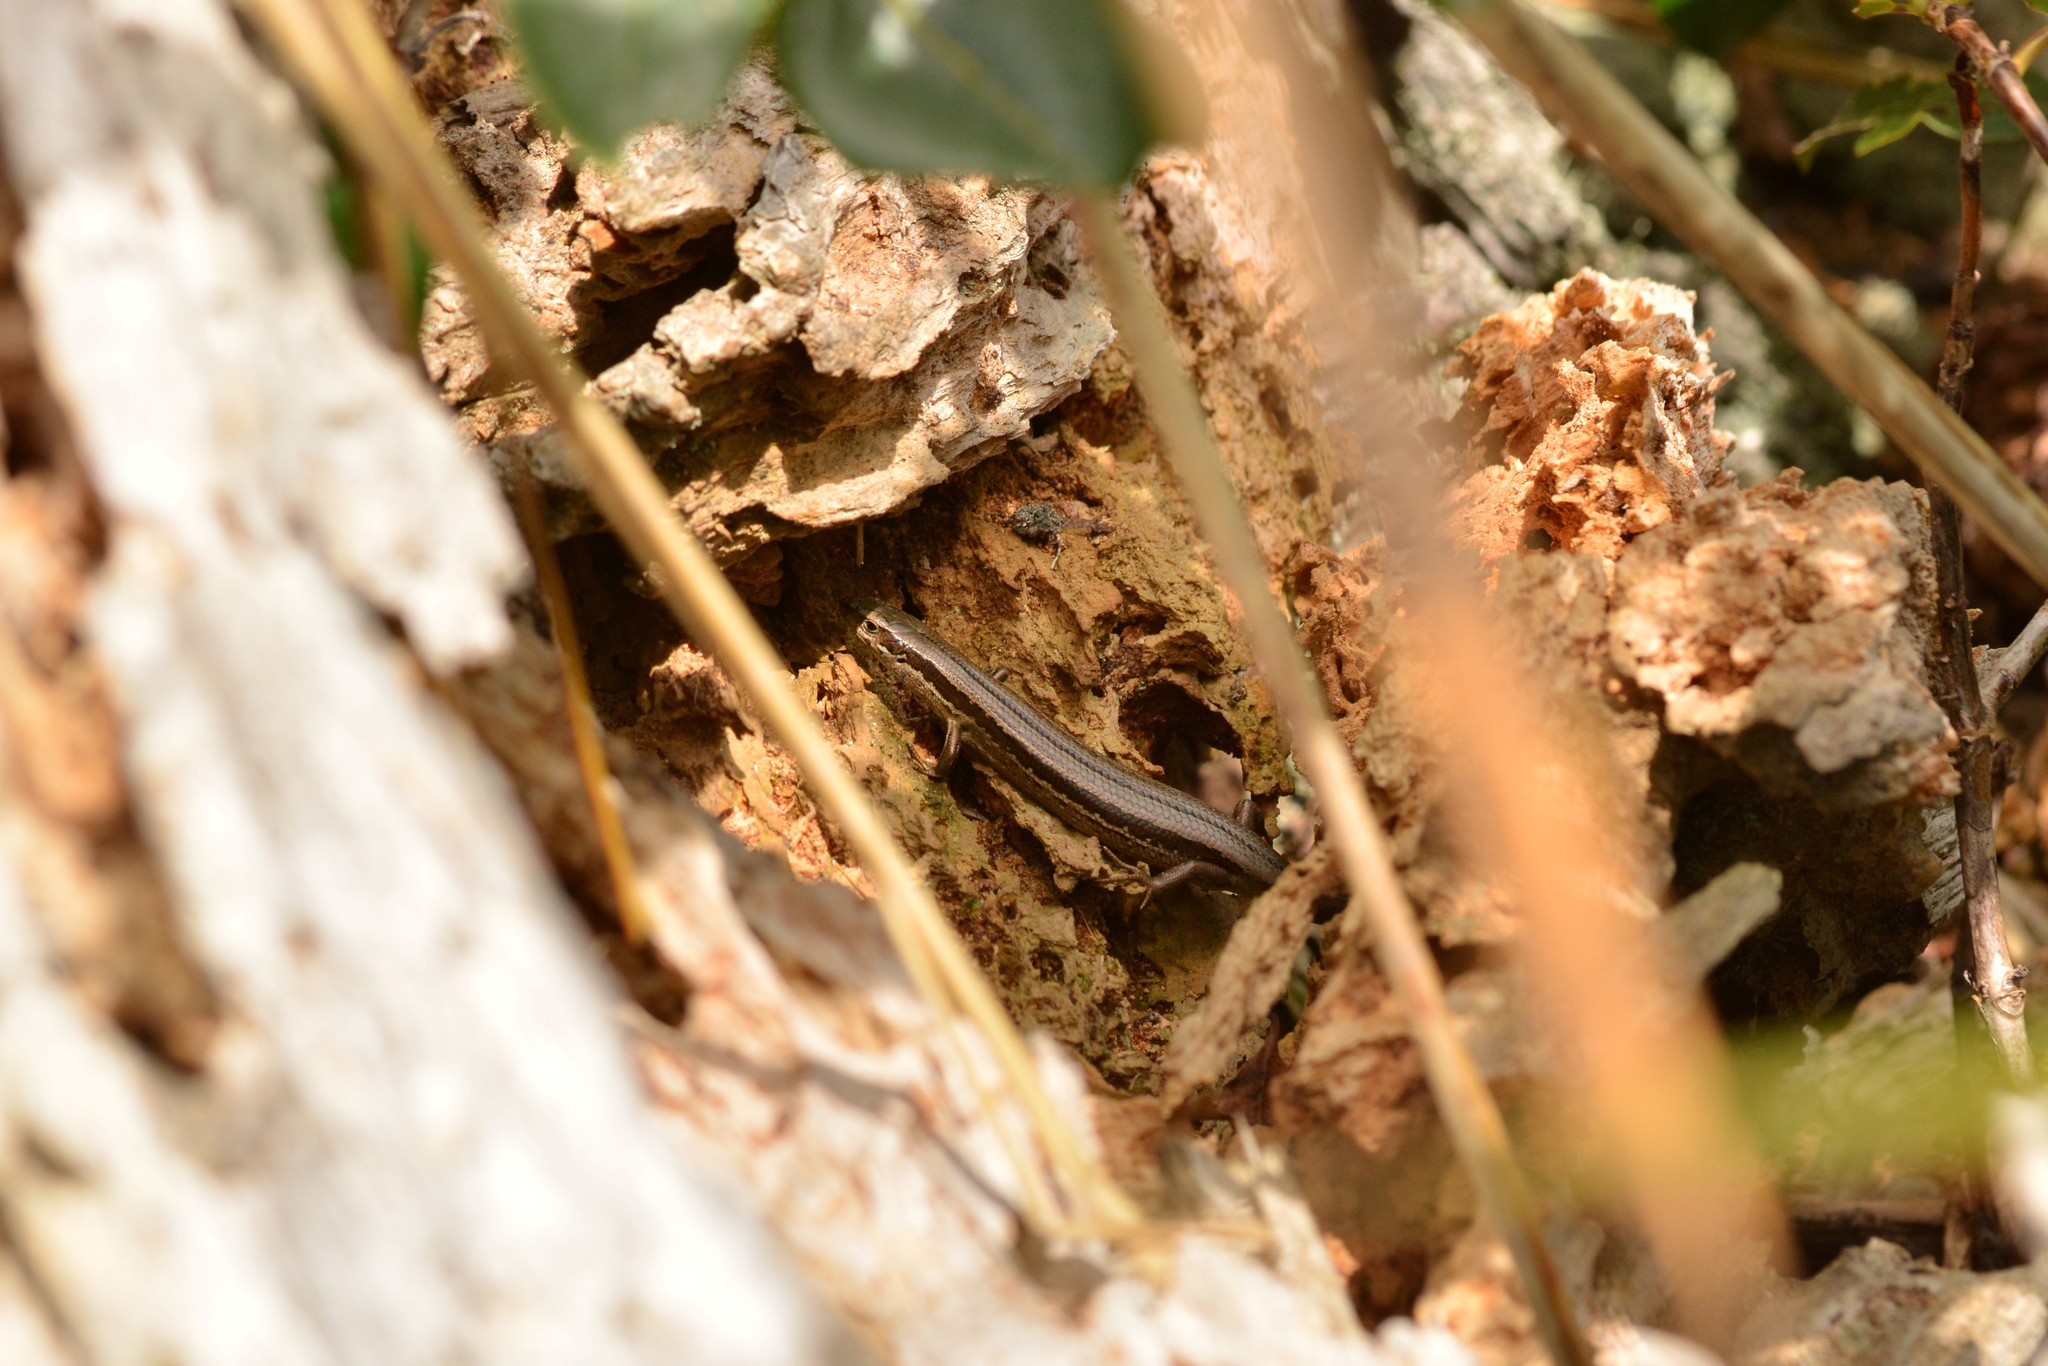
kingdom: Animalia
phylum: Chordata
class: Squamata
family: Scincidae
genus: Oligosoma
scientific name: Oligosoma polychroma
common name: Common new zealand skink
